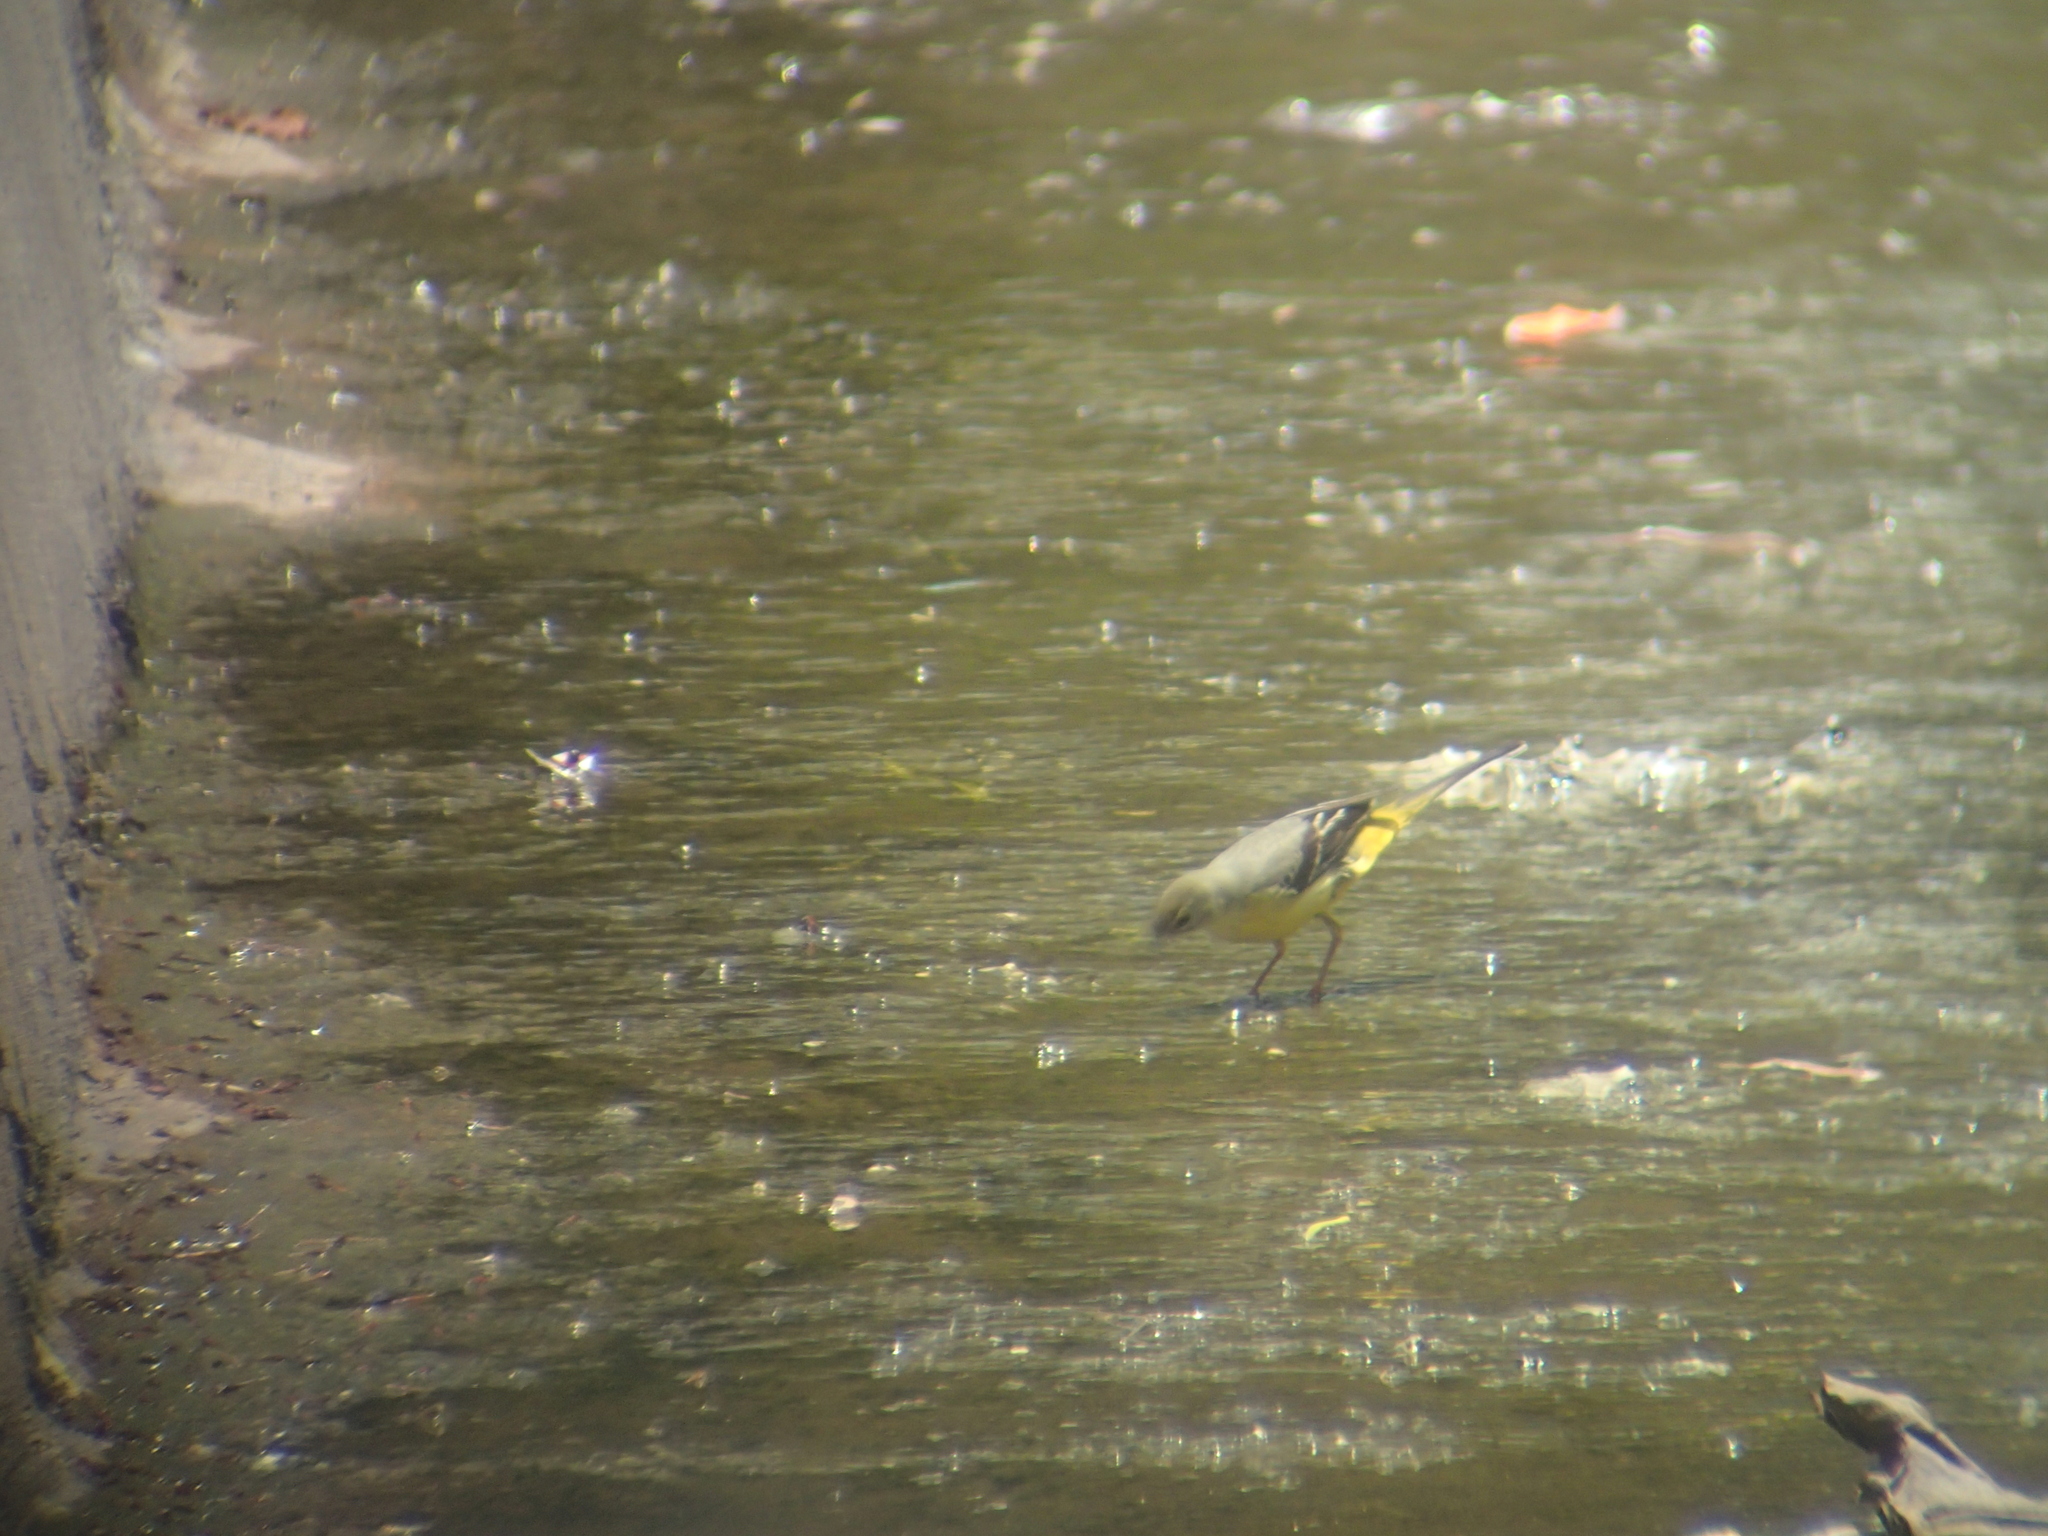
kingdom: Animalia
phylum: Chordata
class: Aves
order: Passeriformes
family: Motacillidae
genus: Motacilla
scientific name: Motacilla cinerea
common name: Grey wagtail
